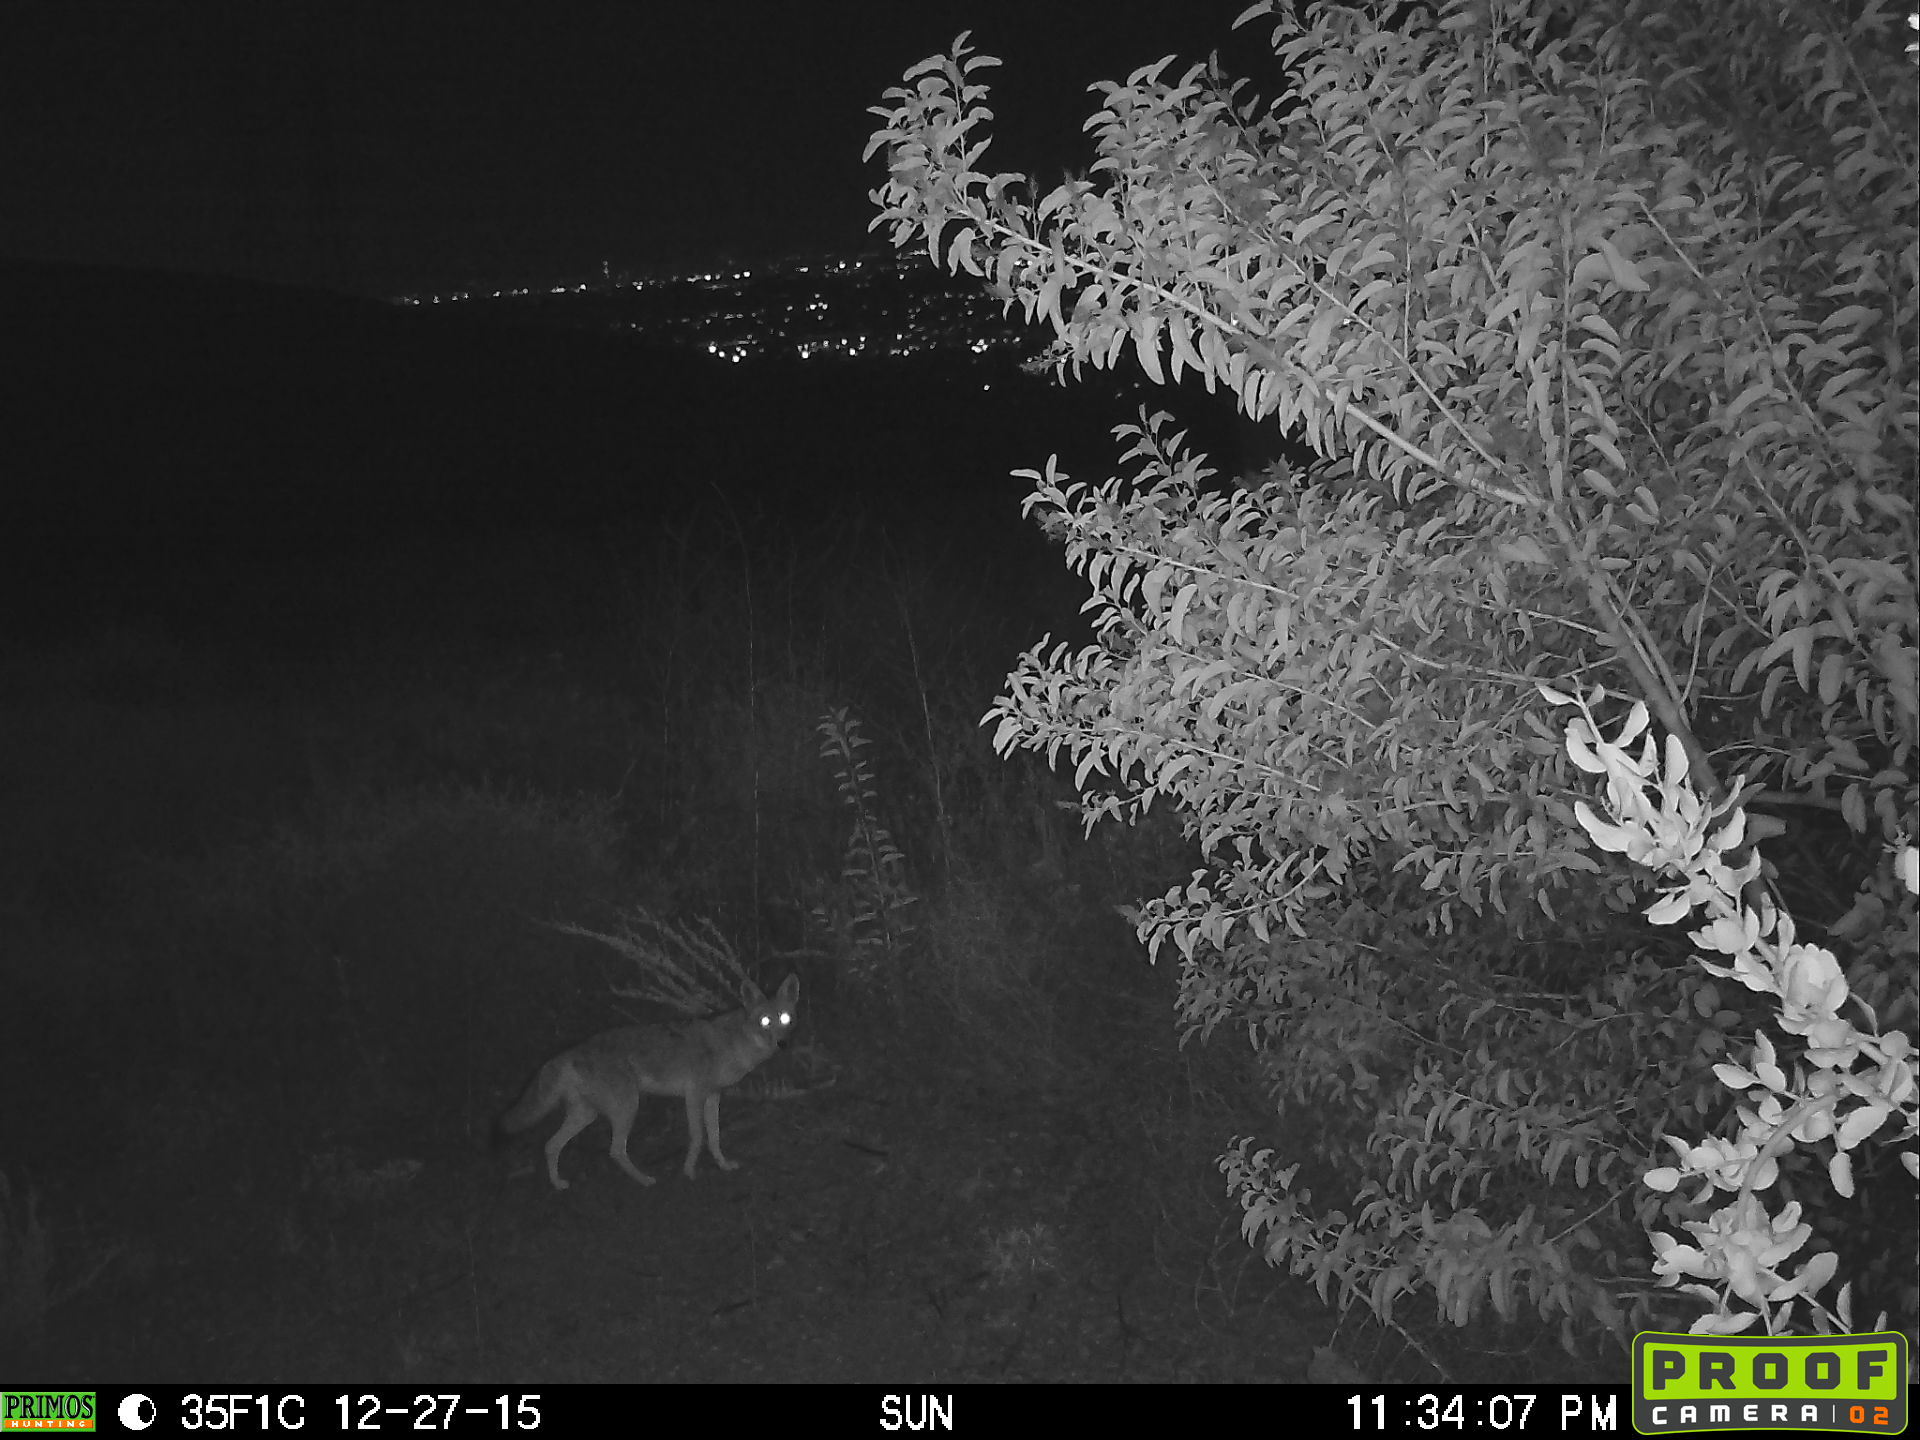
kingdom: Animalia
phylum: Chordata
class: Mammalia
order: Carnivora
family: Canidae
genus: Canis
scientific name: Canis latrans
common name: Coyote
